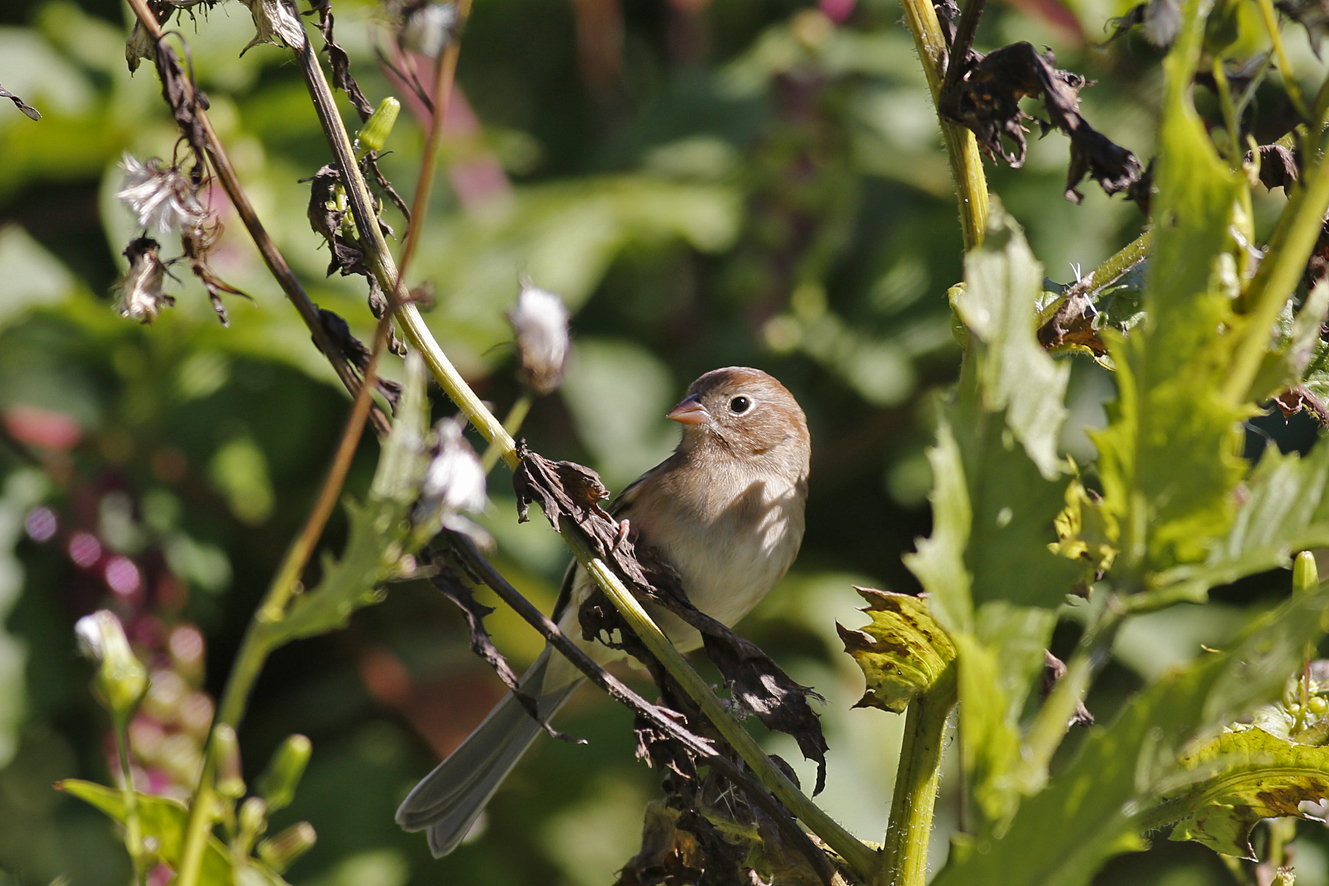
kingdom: Animalia
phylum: Chordata
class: Aves
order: Passeriformes
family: Passerellidae
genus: Spizella
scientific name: Spizella pusilla
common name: Field sparrow
